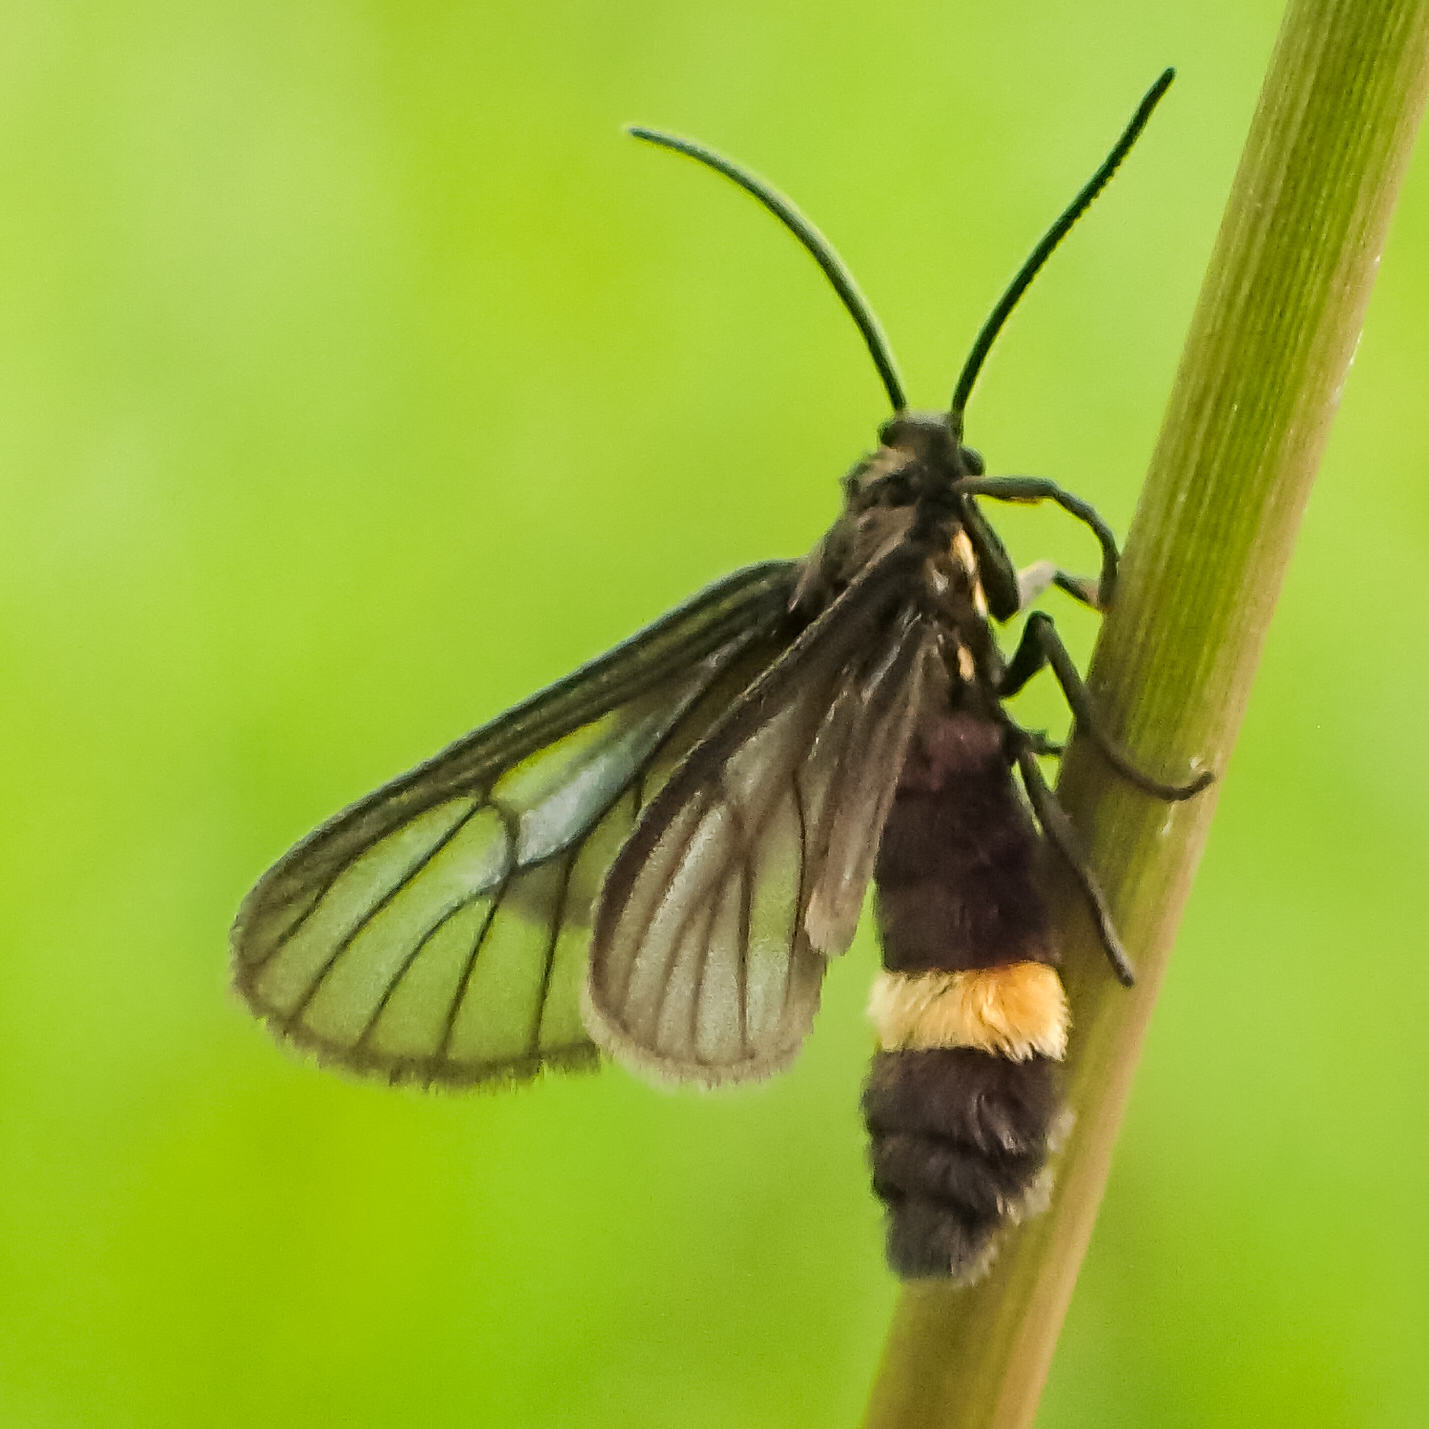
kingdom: Animalia
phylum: Arthropoda
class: Insecta
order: Lepidoptera
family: Erebidae
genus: Psichotoe
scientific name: Psichotoe duvauceli
